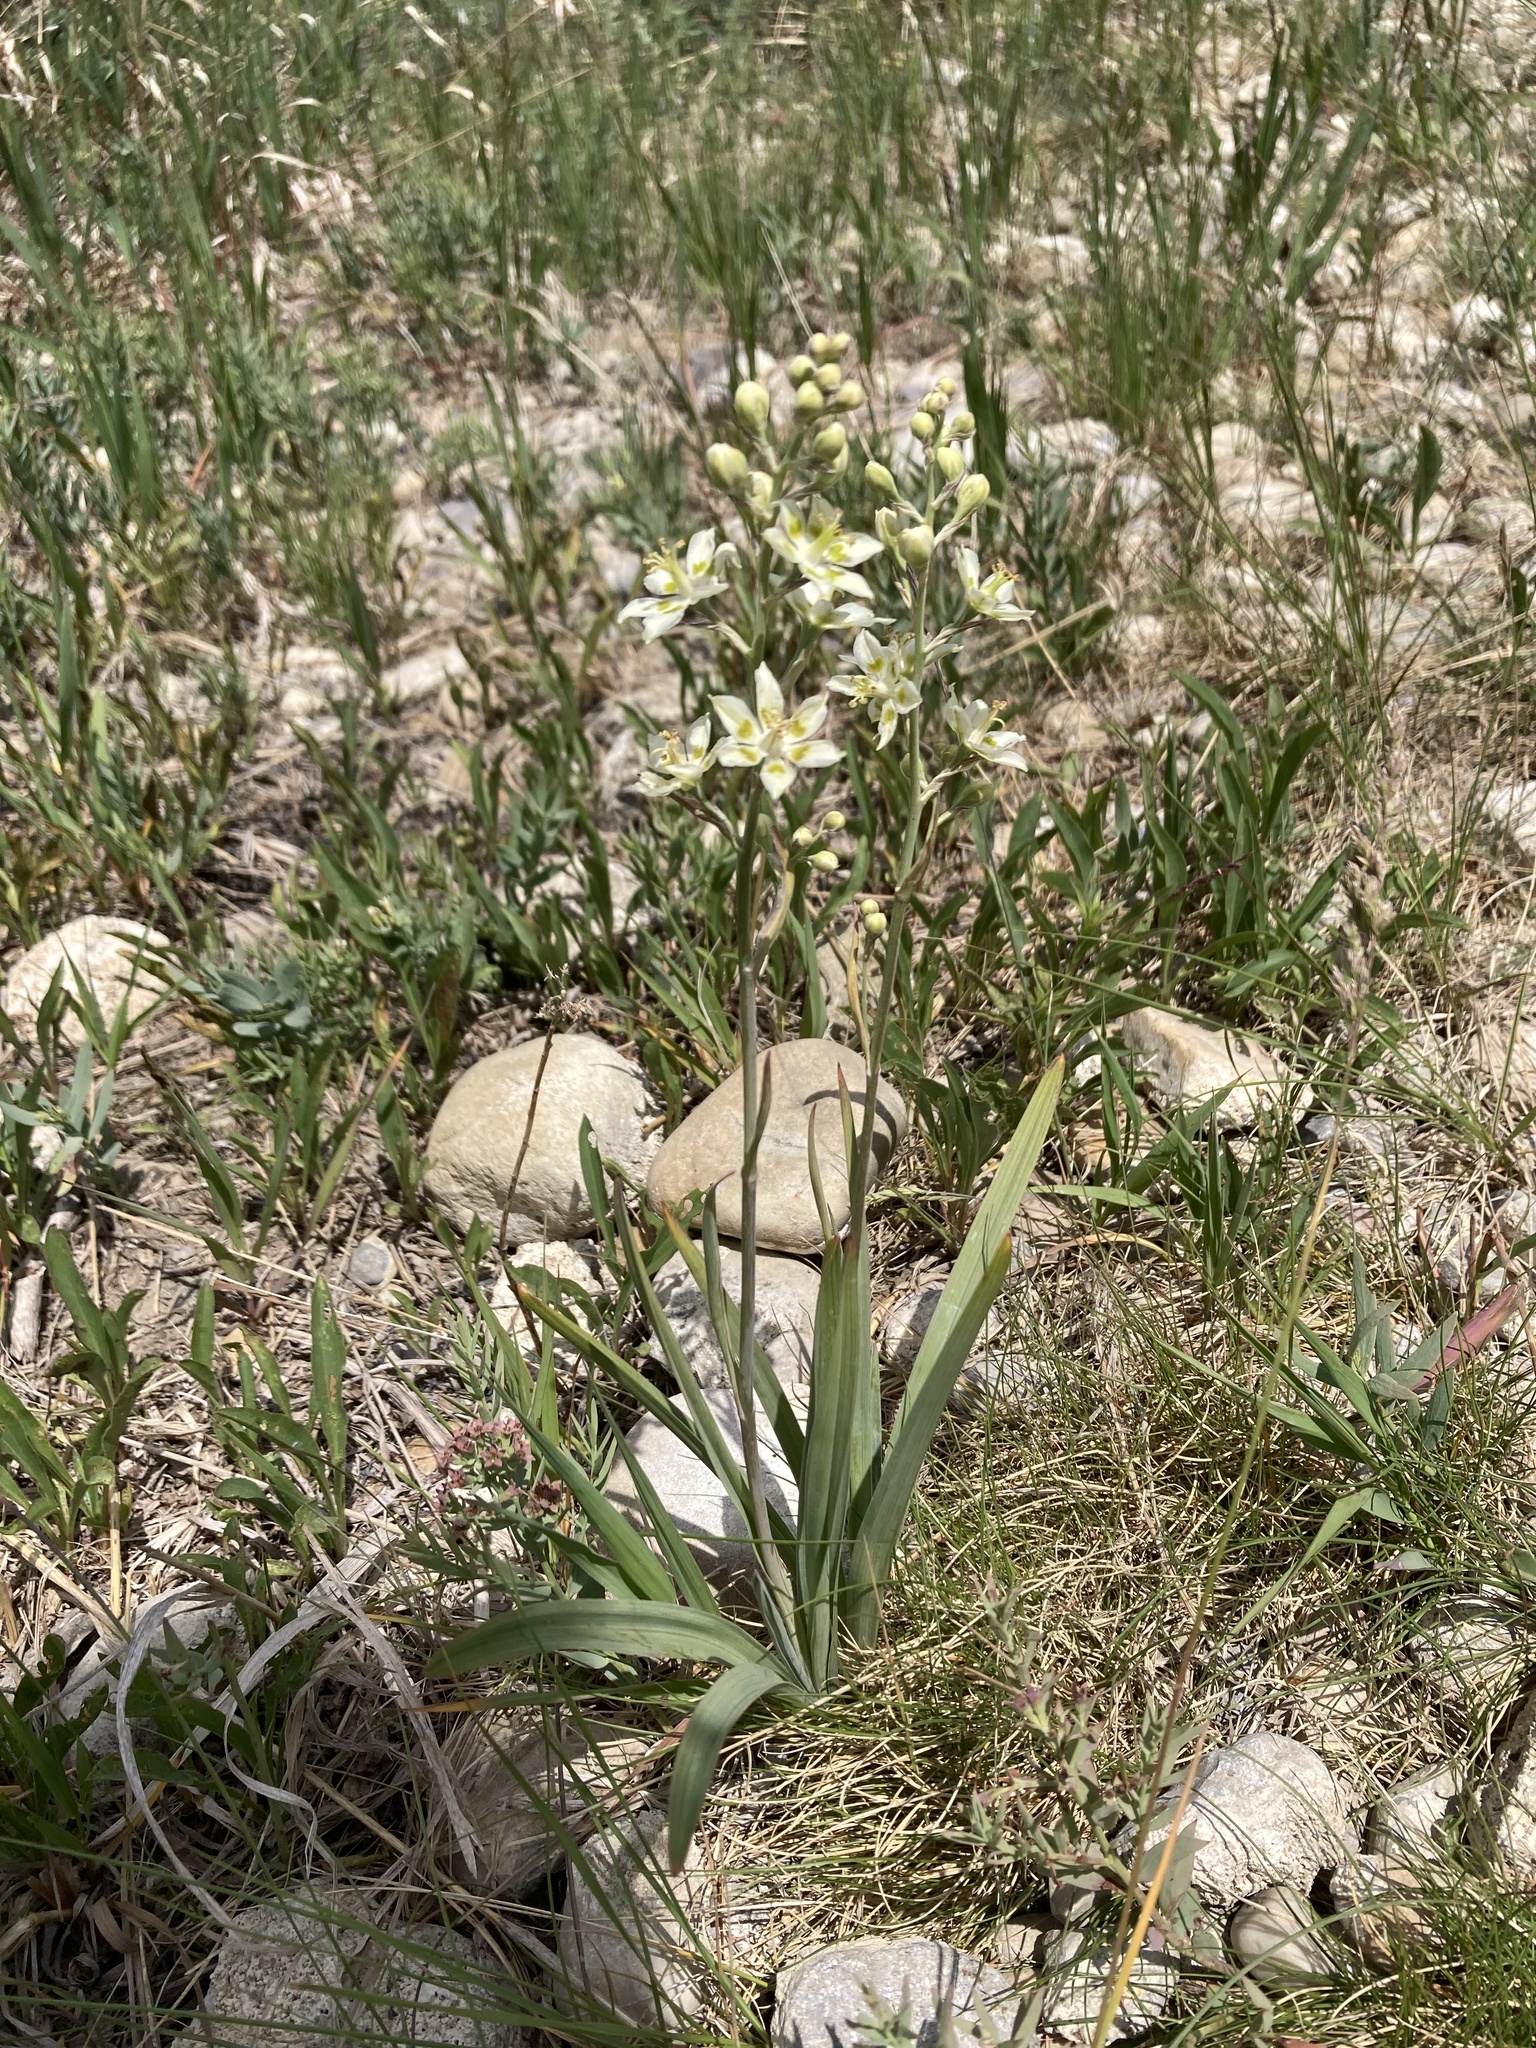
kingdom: Plantae
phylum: Tracheophyta
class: Liliopsida
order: Liliales
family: Melanthiaceae
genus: Anticlea
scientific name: Anticlea elegans
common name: Mountain death camas
